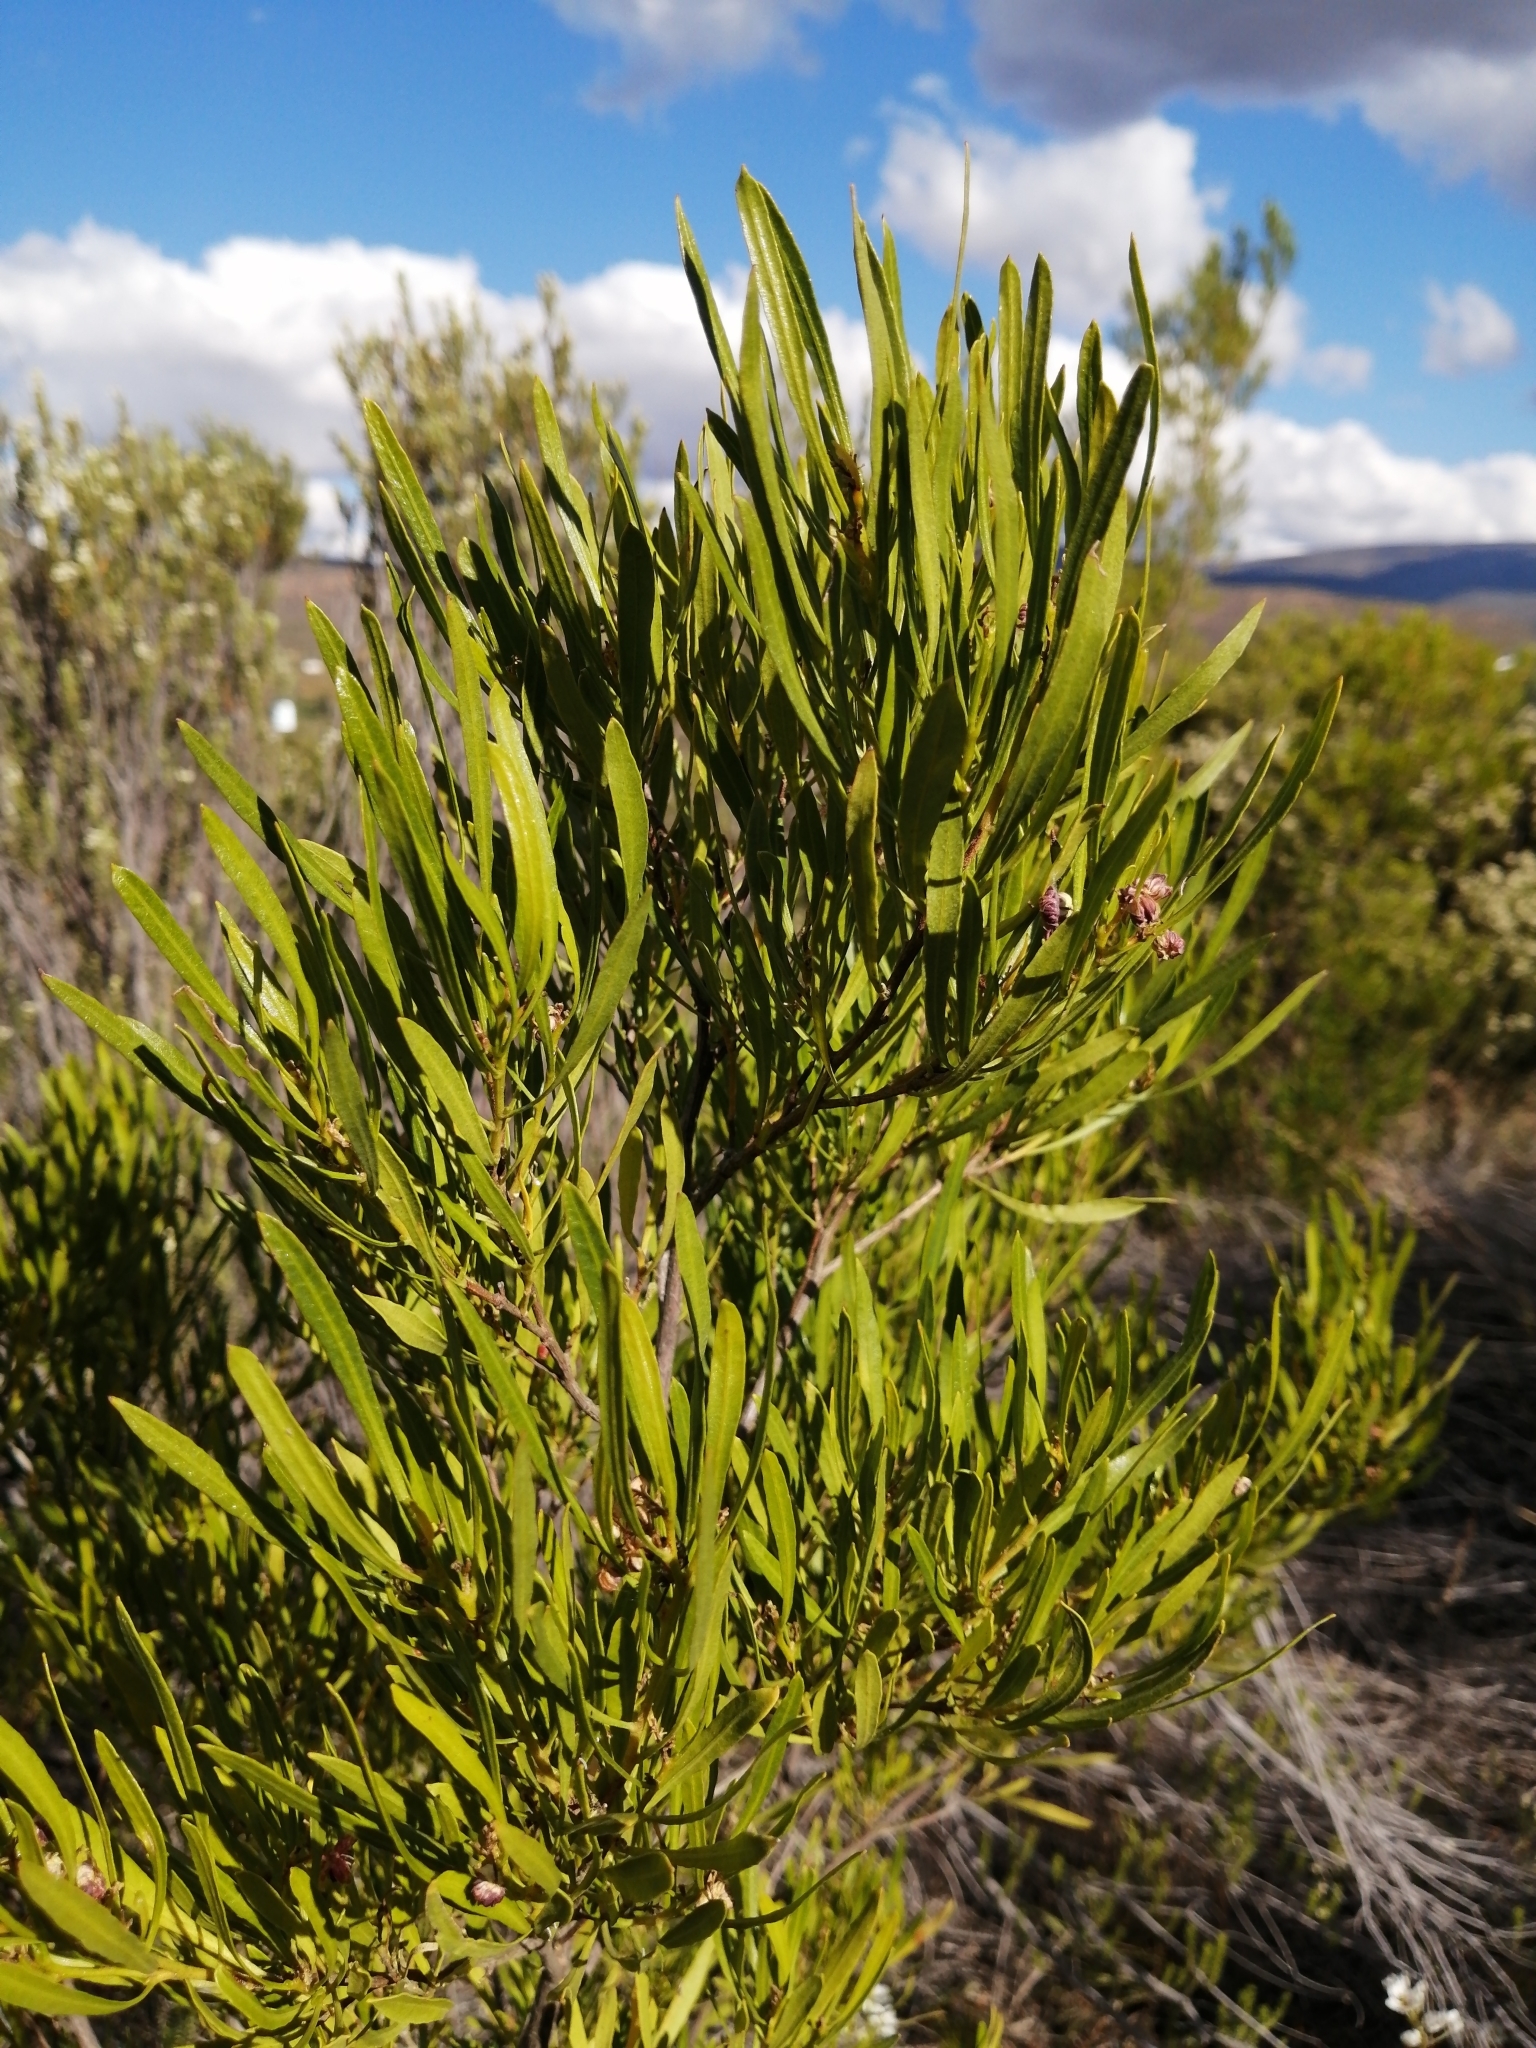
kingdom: Plantae
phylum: Tracheophyta
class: Magnoliopsida
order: Sapindales
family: Sapindaceae
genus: Dodonaea
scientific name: Dodonaea viscosa
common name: Hopbush
